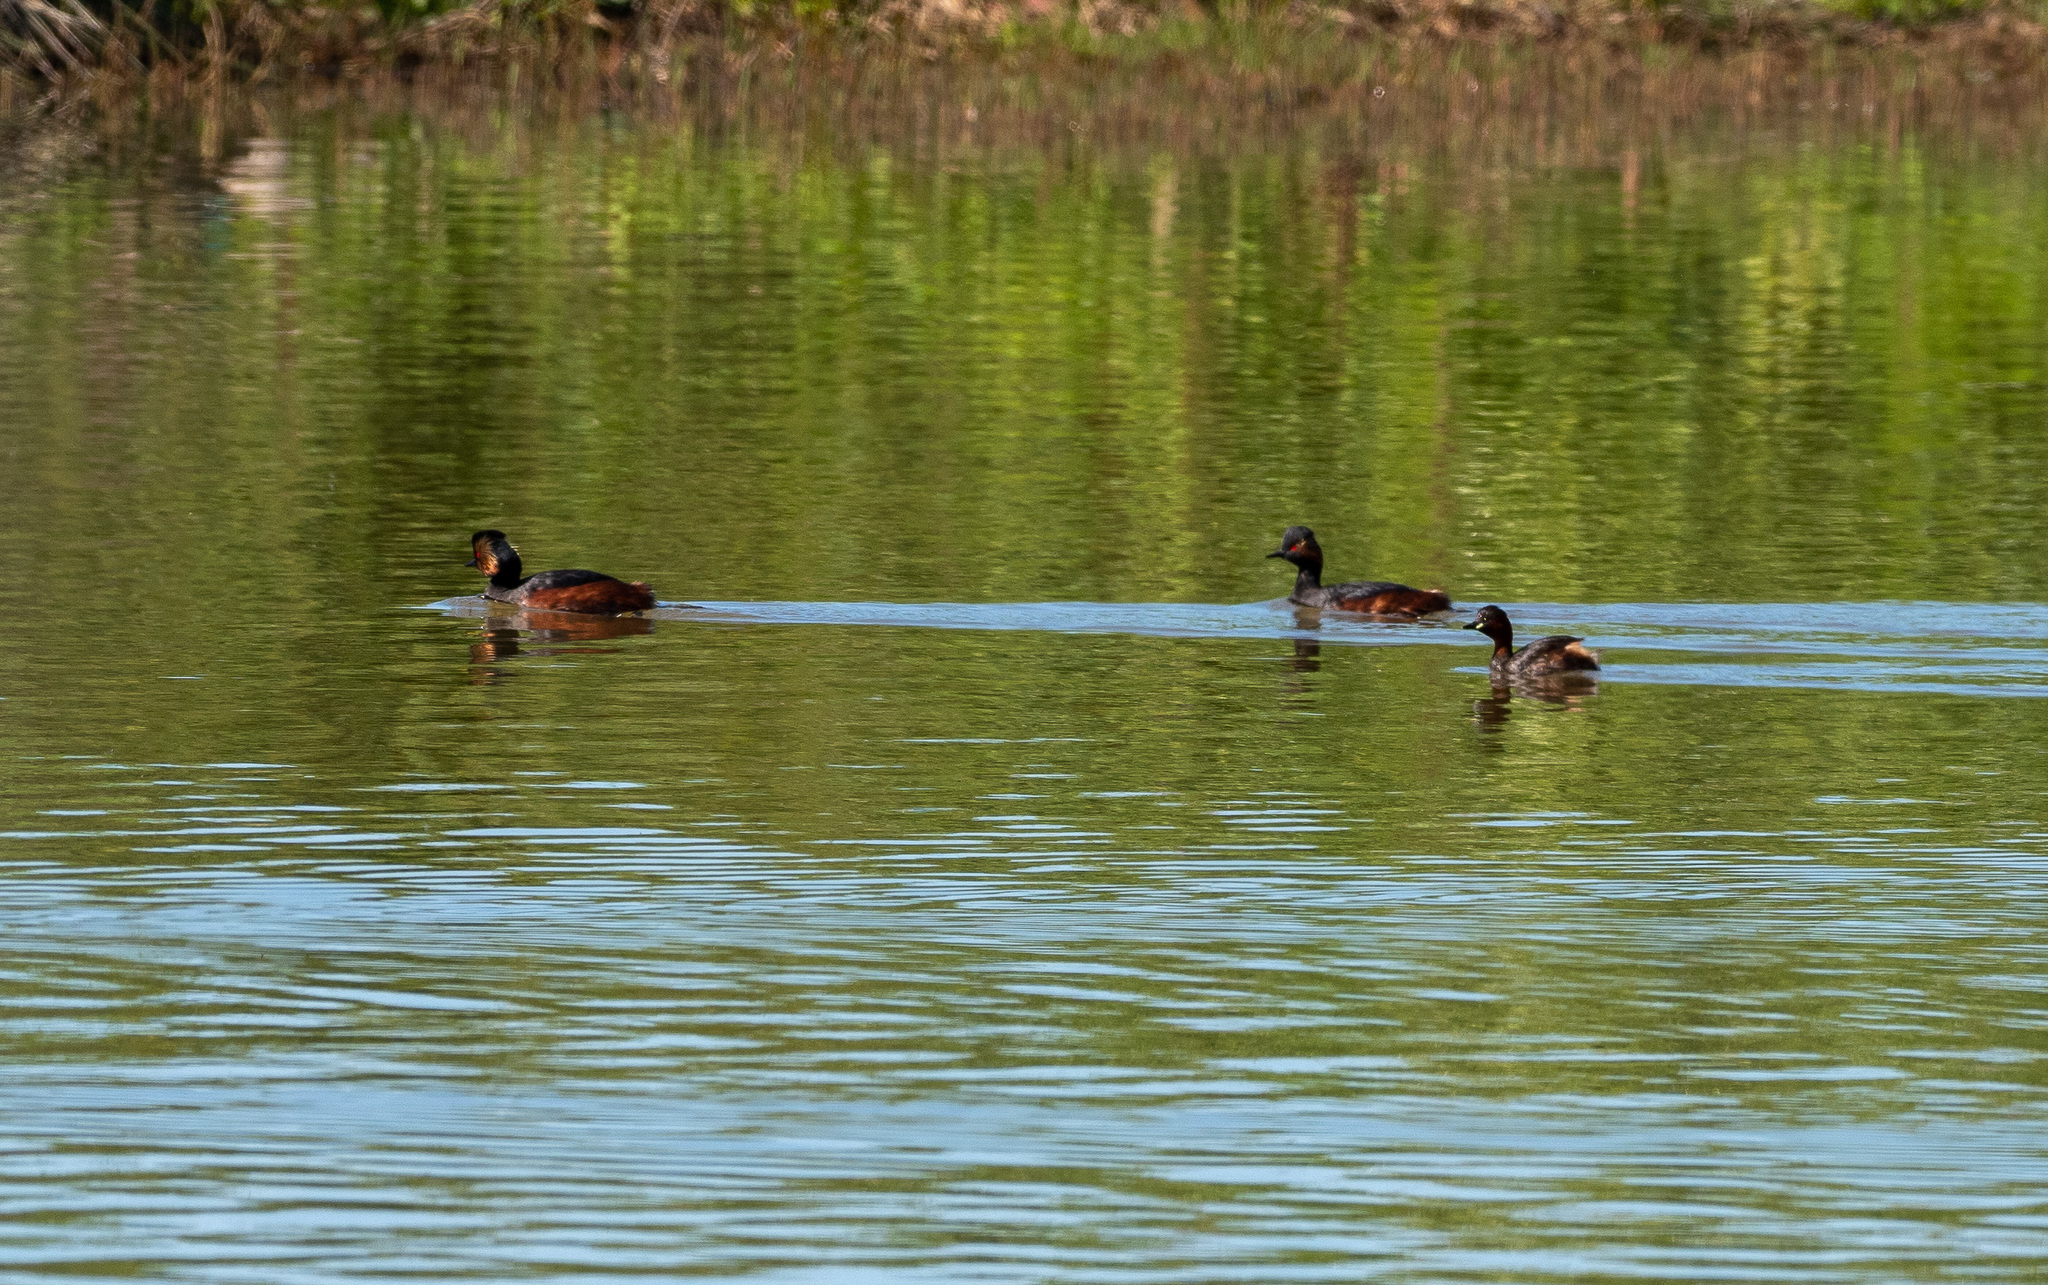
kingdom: Animalia
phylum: Chordata
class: Aves
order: Podicipediformes
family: Podicipedidae
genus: Podiceps
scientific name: Podiceps nigricollis
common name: Black-necked grebe
